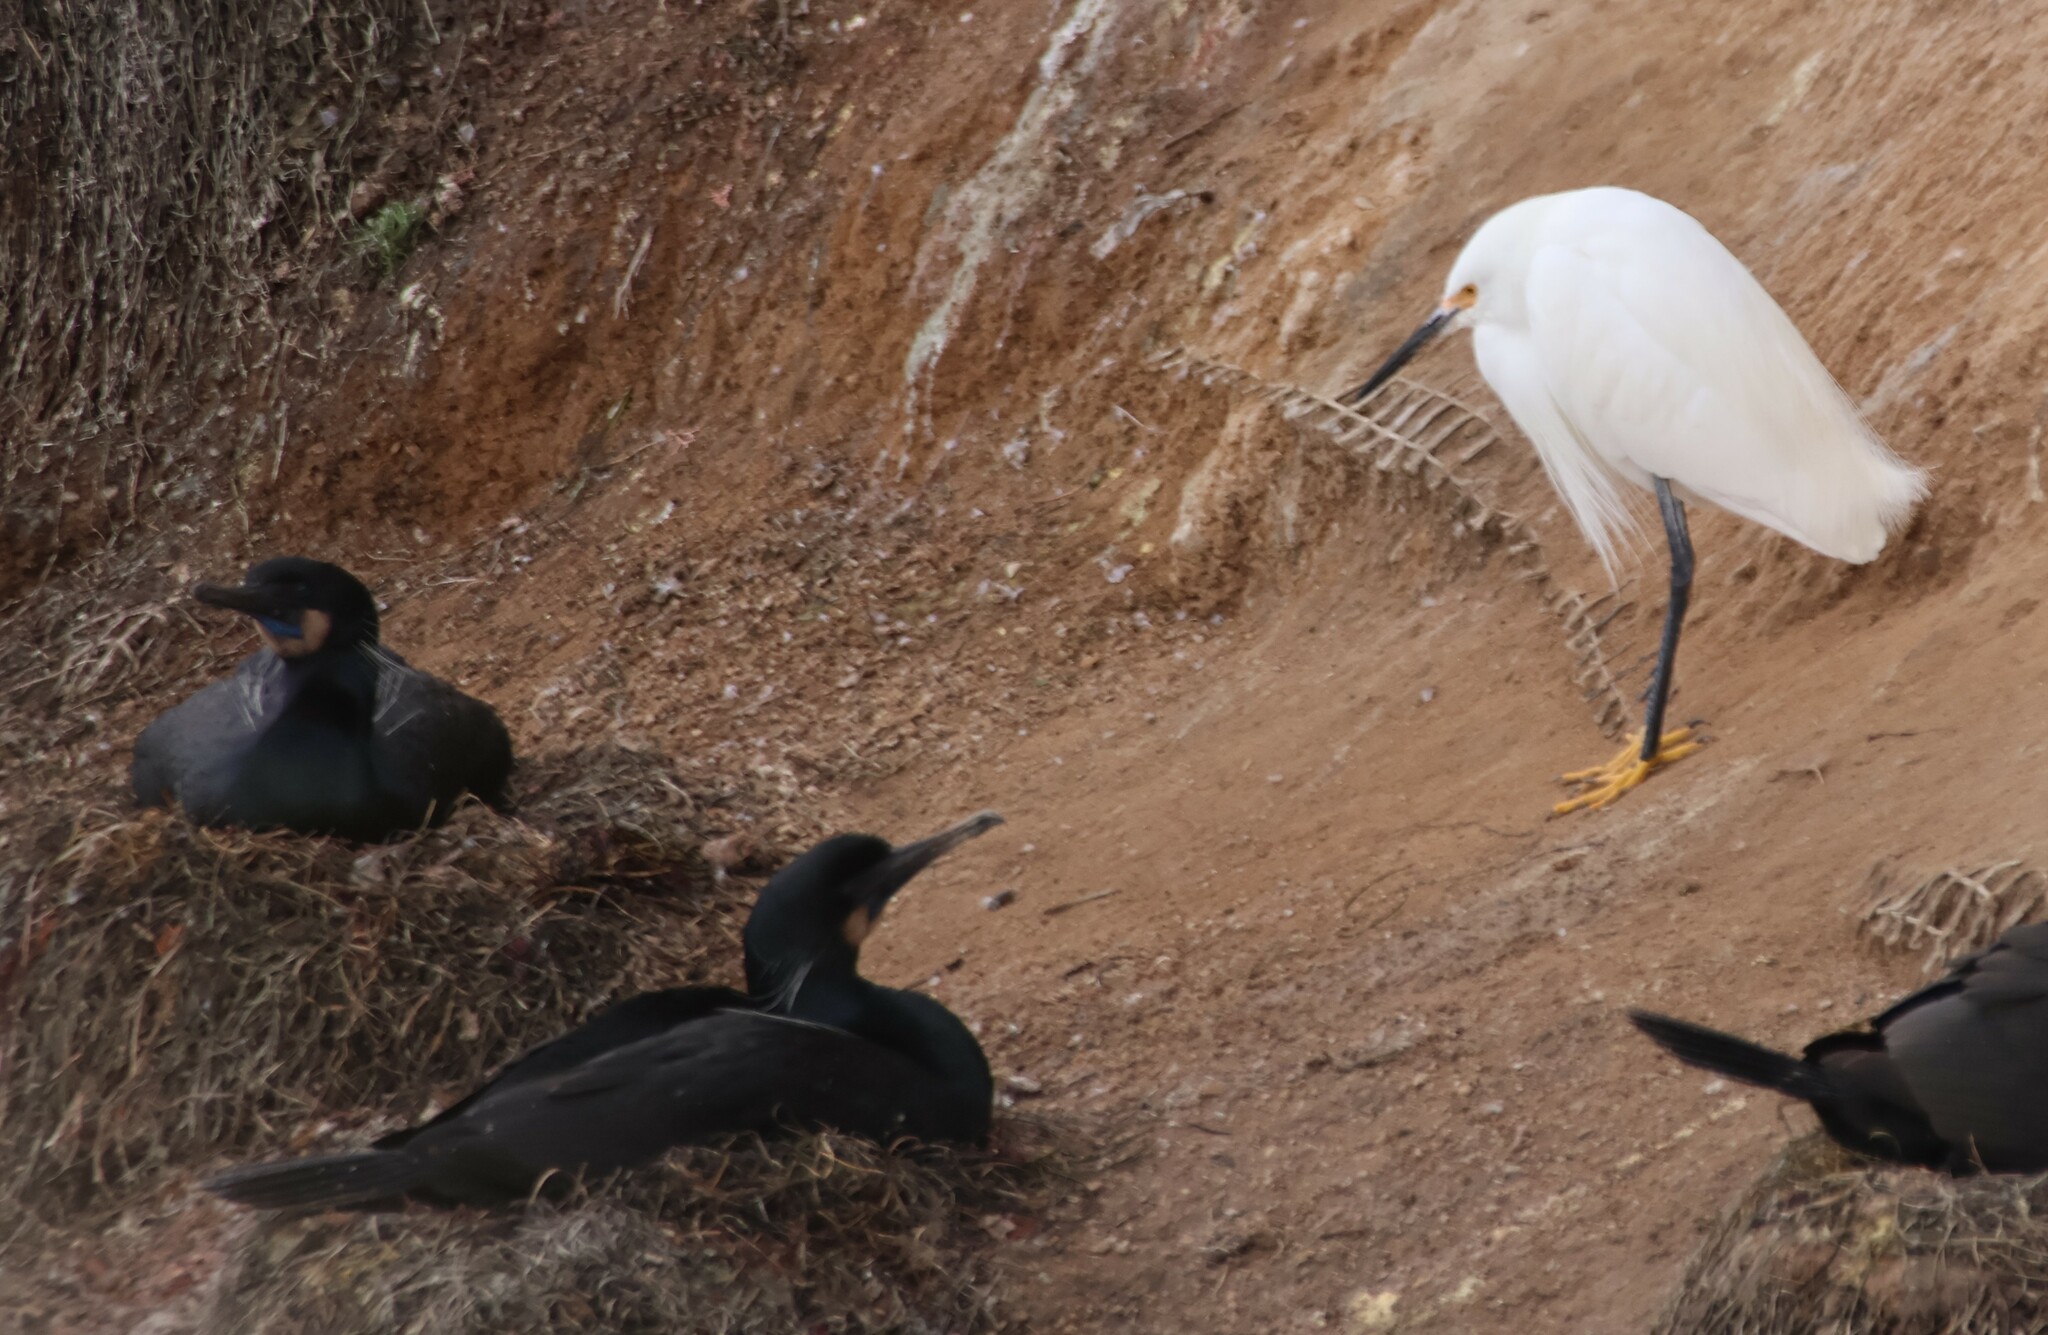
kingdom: Animalia
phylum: Chordata
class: Aves
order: Pelecaniformes
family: Ardeidae
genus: Egretta
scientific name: Egretta thula
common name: Snowy egret
